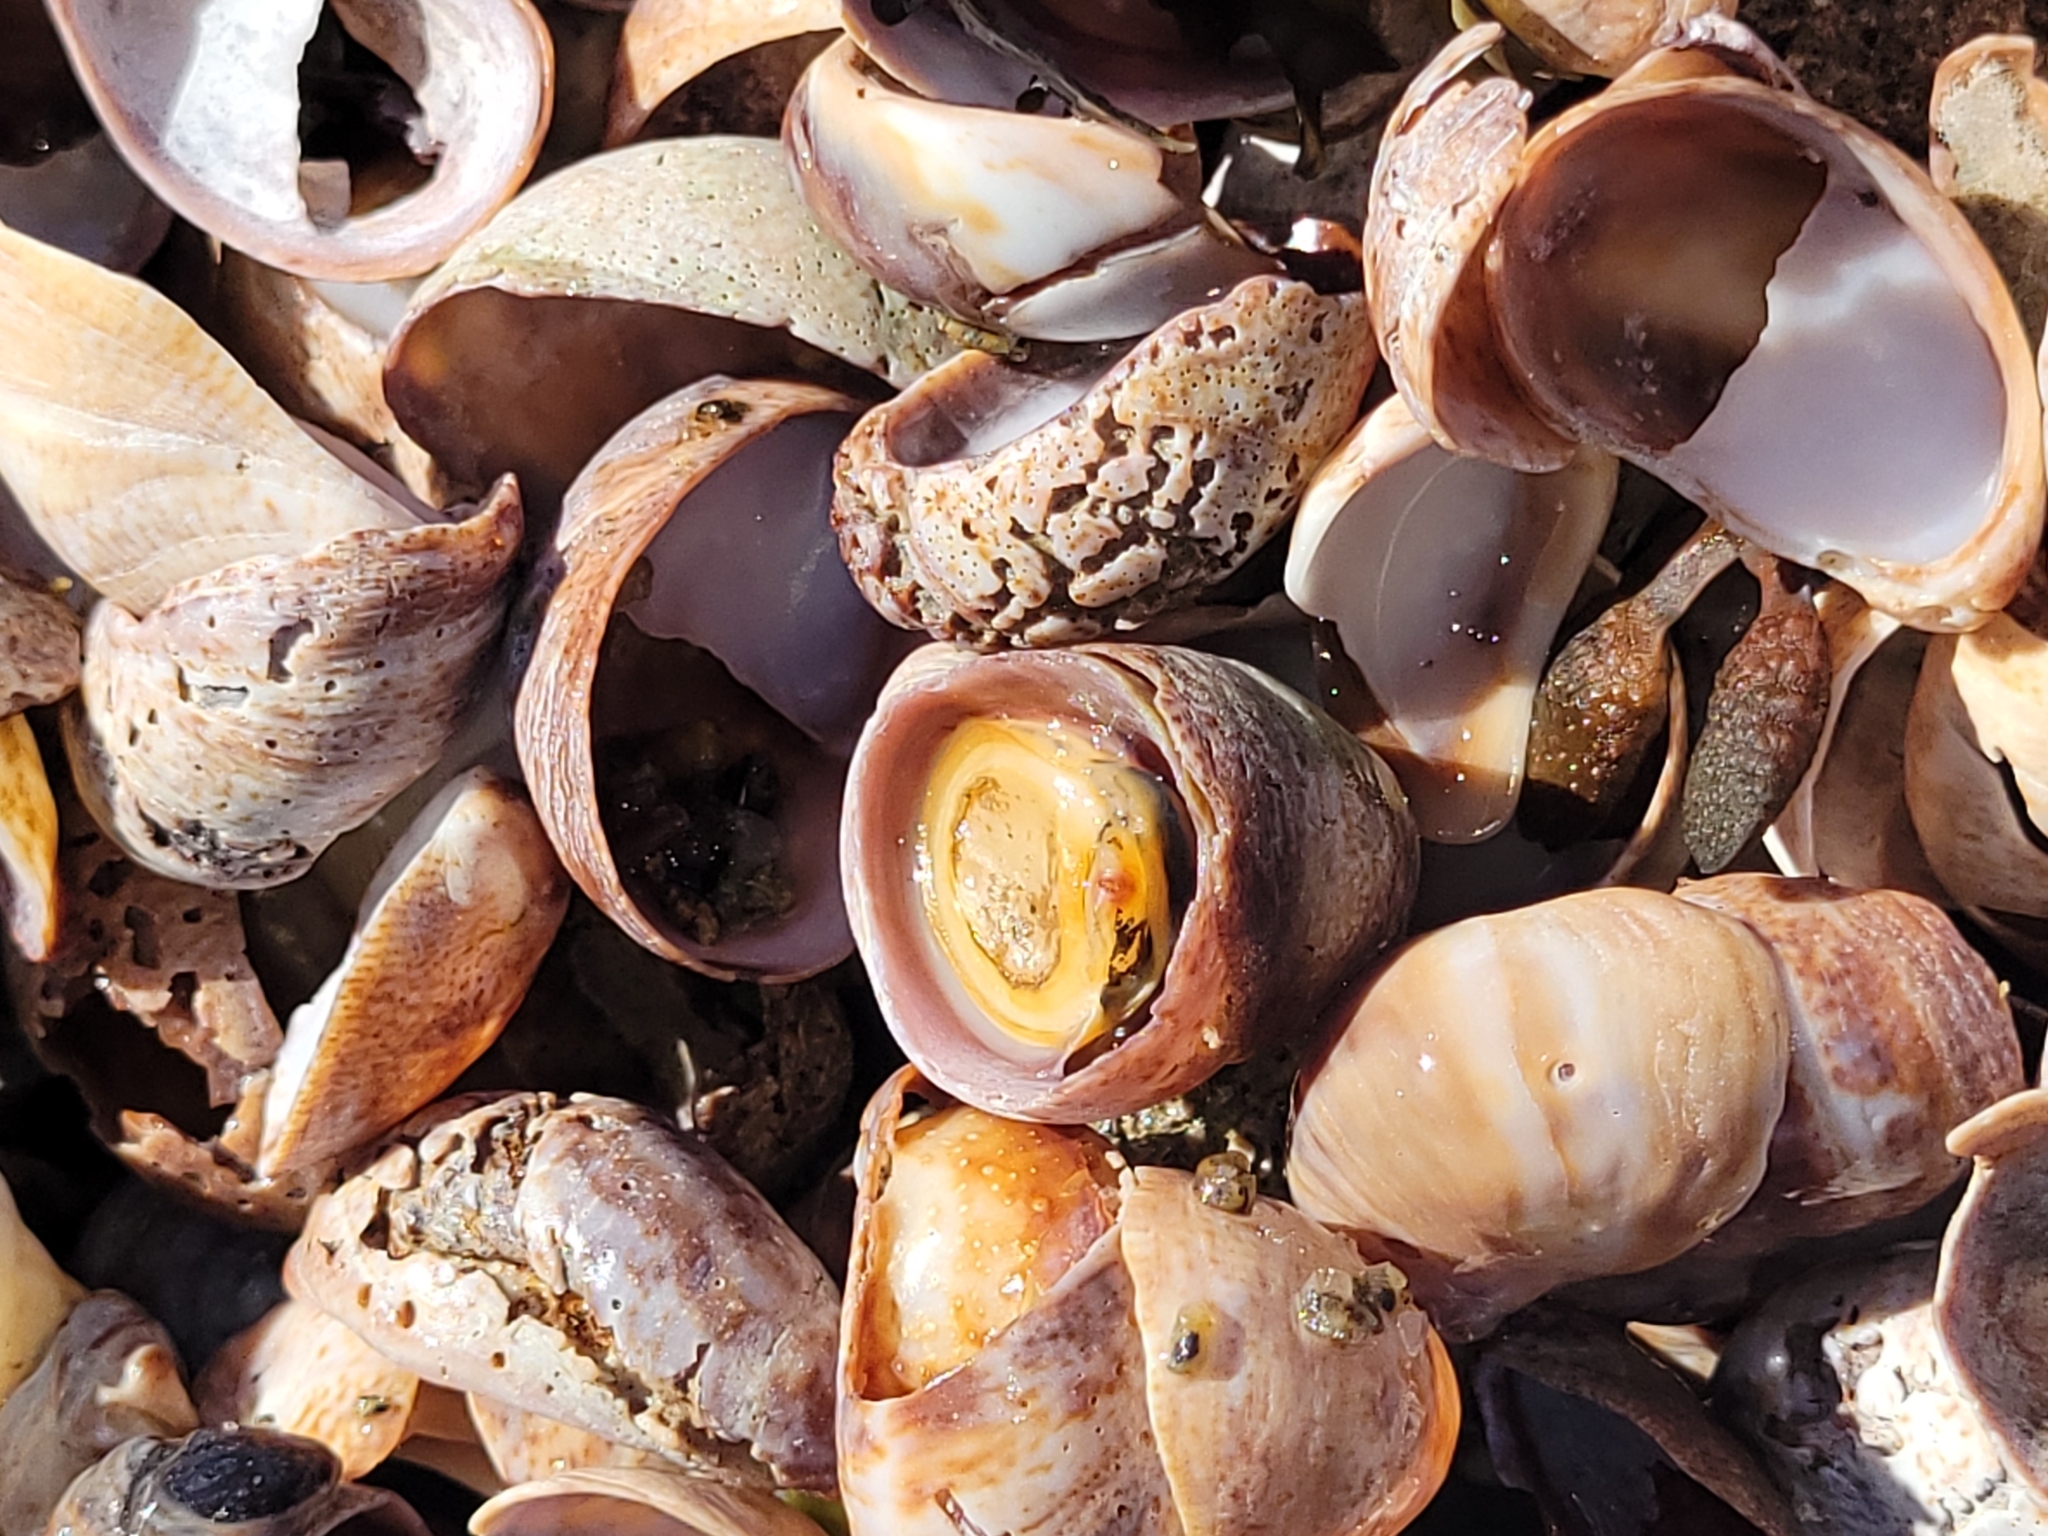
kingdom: Animalia
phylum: Mollusca
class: Gastropoda
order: Littorinimorpha
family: Calyptraeidae
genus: Crepidula
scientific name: Crepidula fornicata
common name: Slipper limpet
